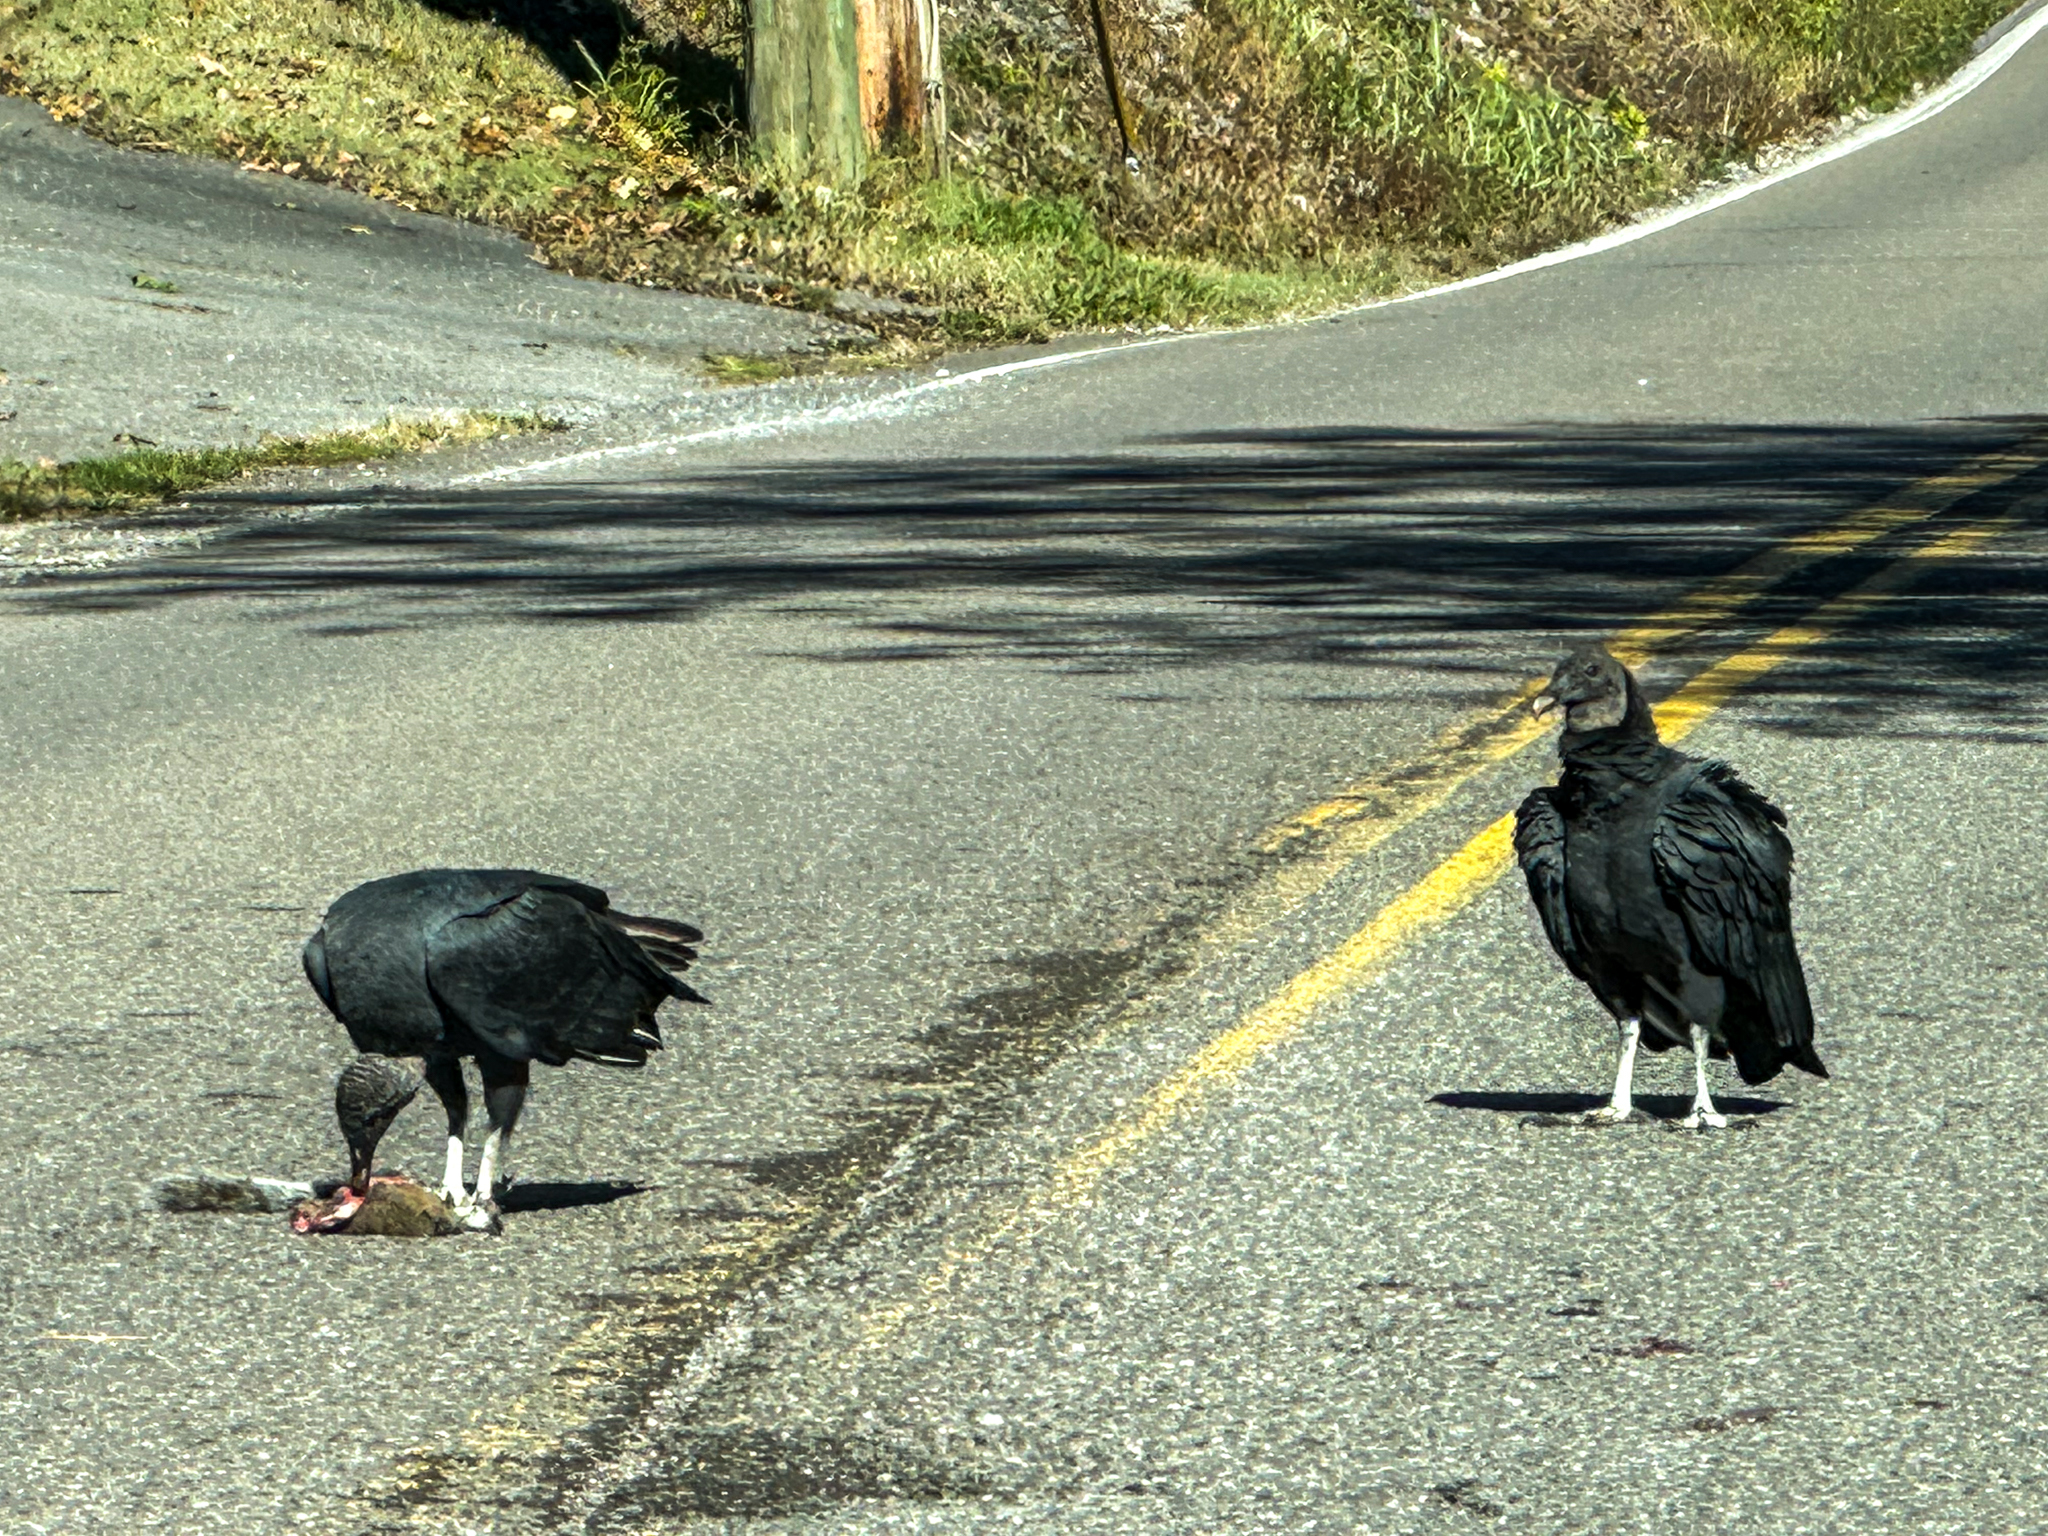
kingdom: Animalia
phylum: Chordata
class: Aves
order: Accipitriformes
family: Cathartidae
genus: Coragyps
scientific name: Coragyps atratus
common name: Black vulture
